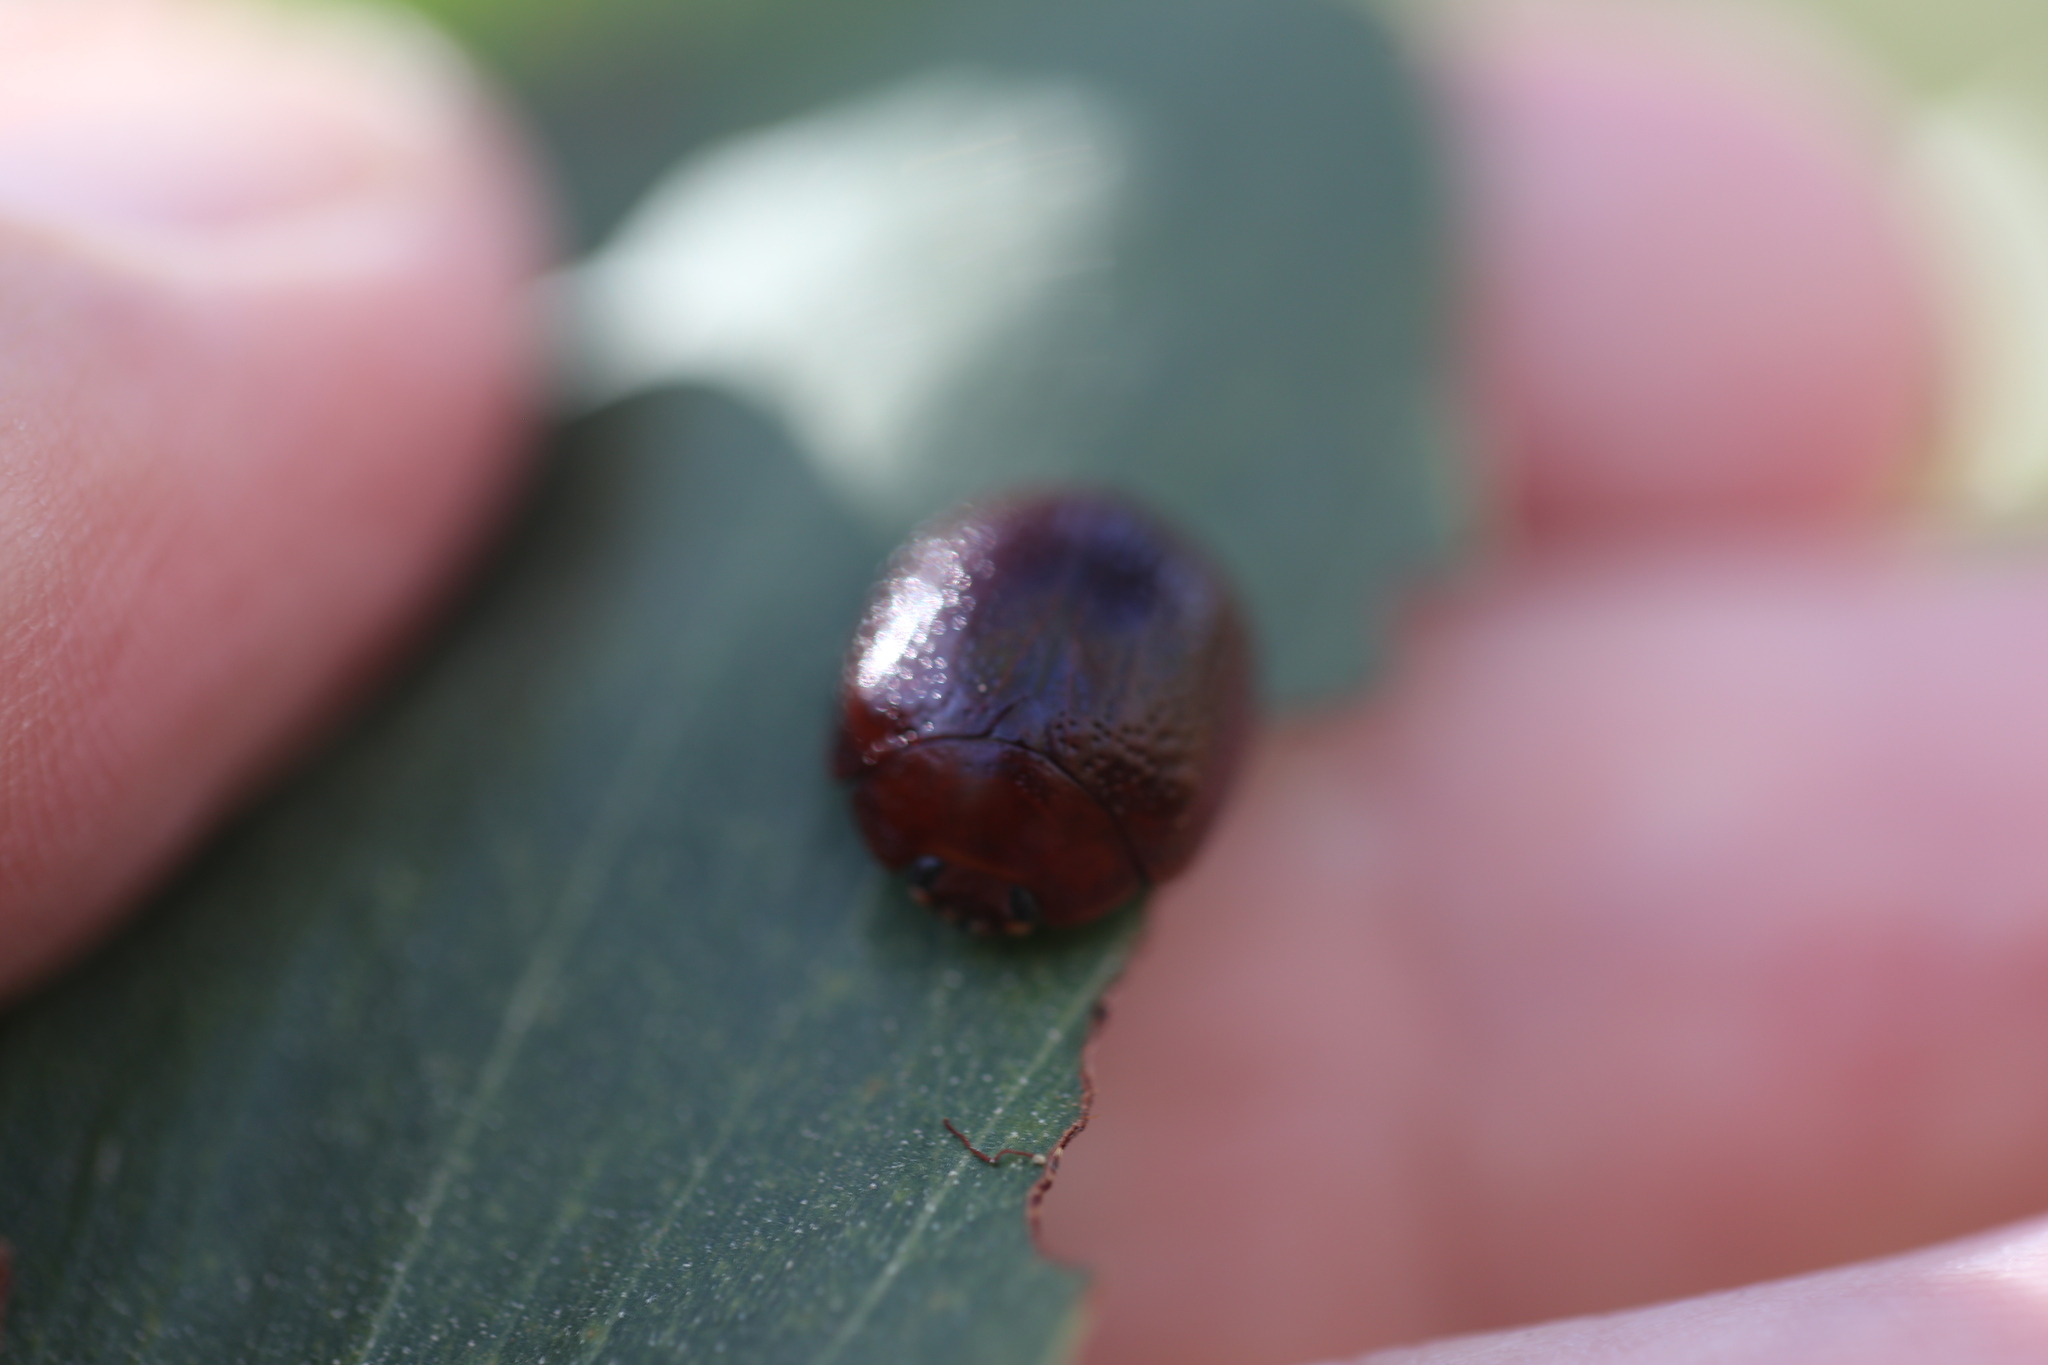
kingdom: Animalia
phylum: Arthropoda
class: Insecta
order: Coleoptera
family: Chrysomelidae
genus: Dicranosterna
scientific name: Dicranosterna
